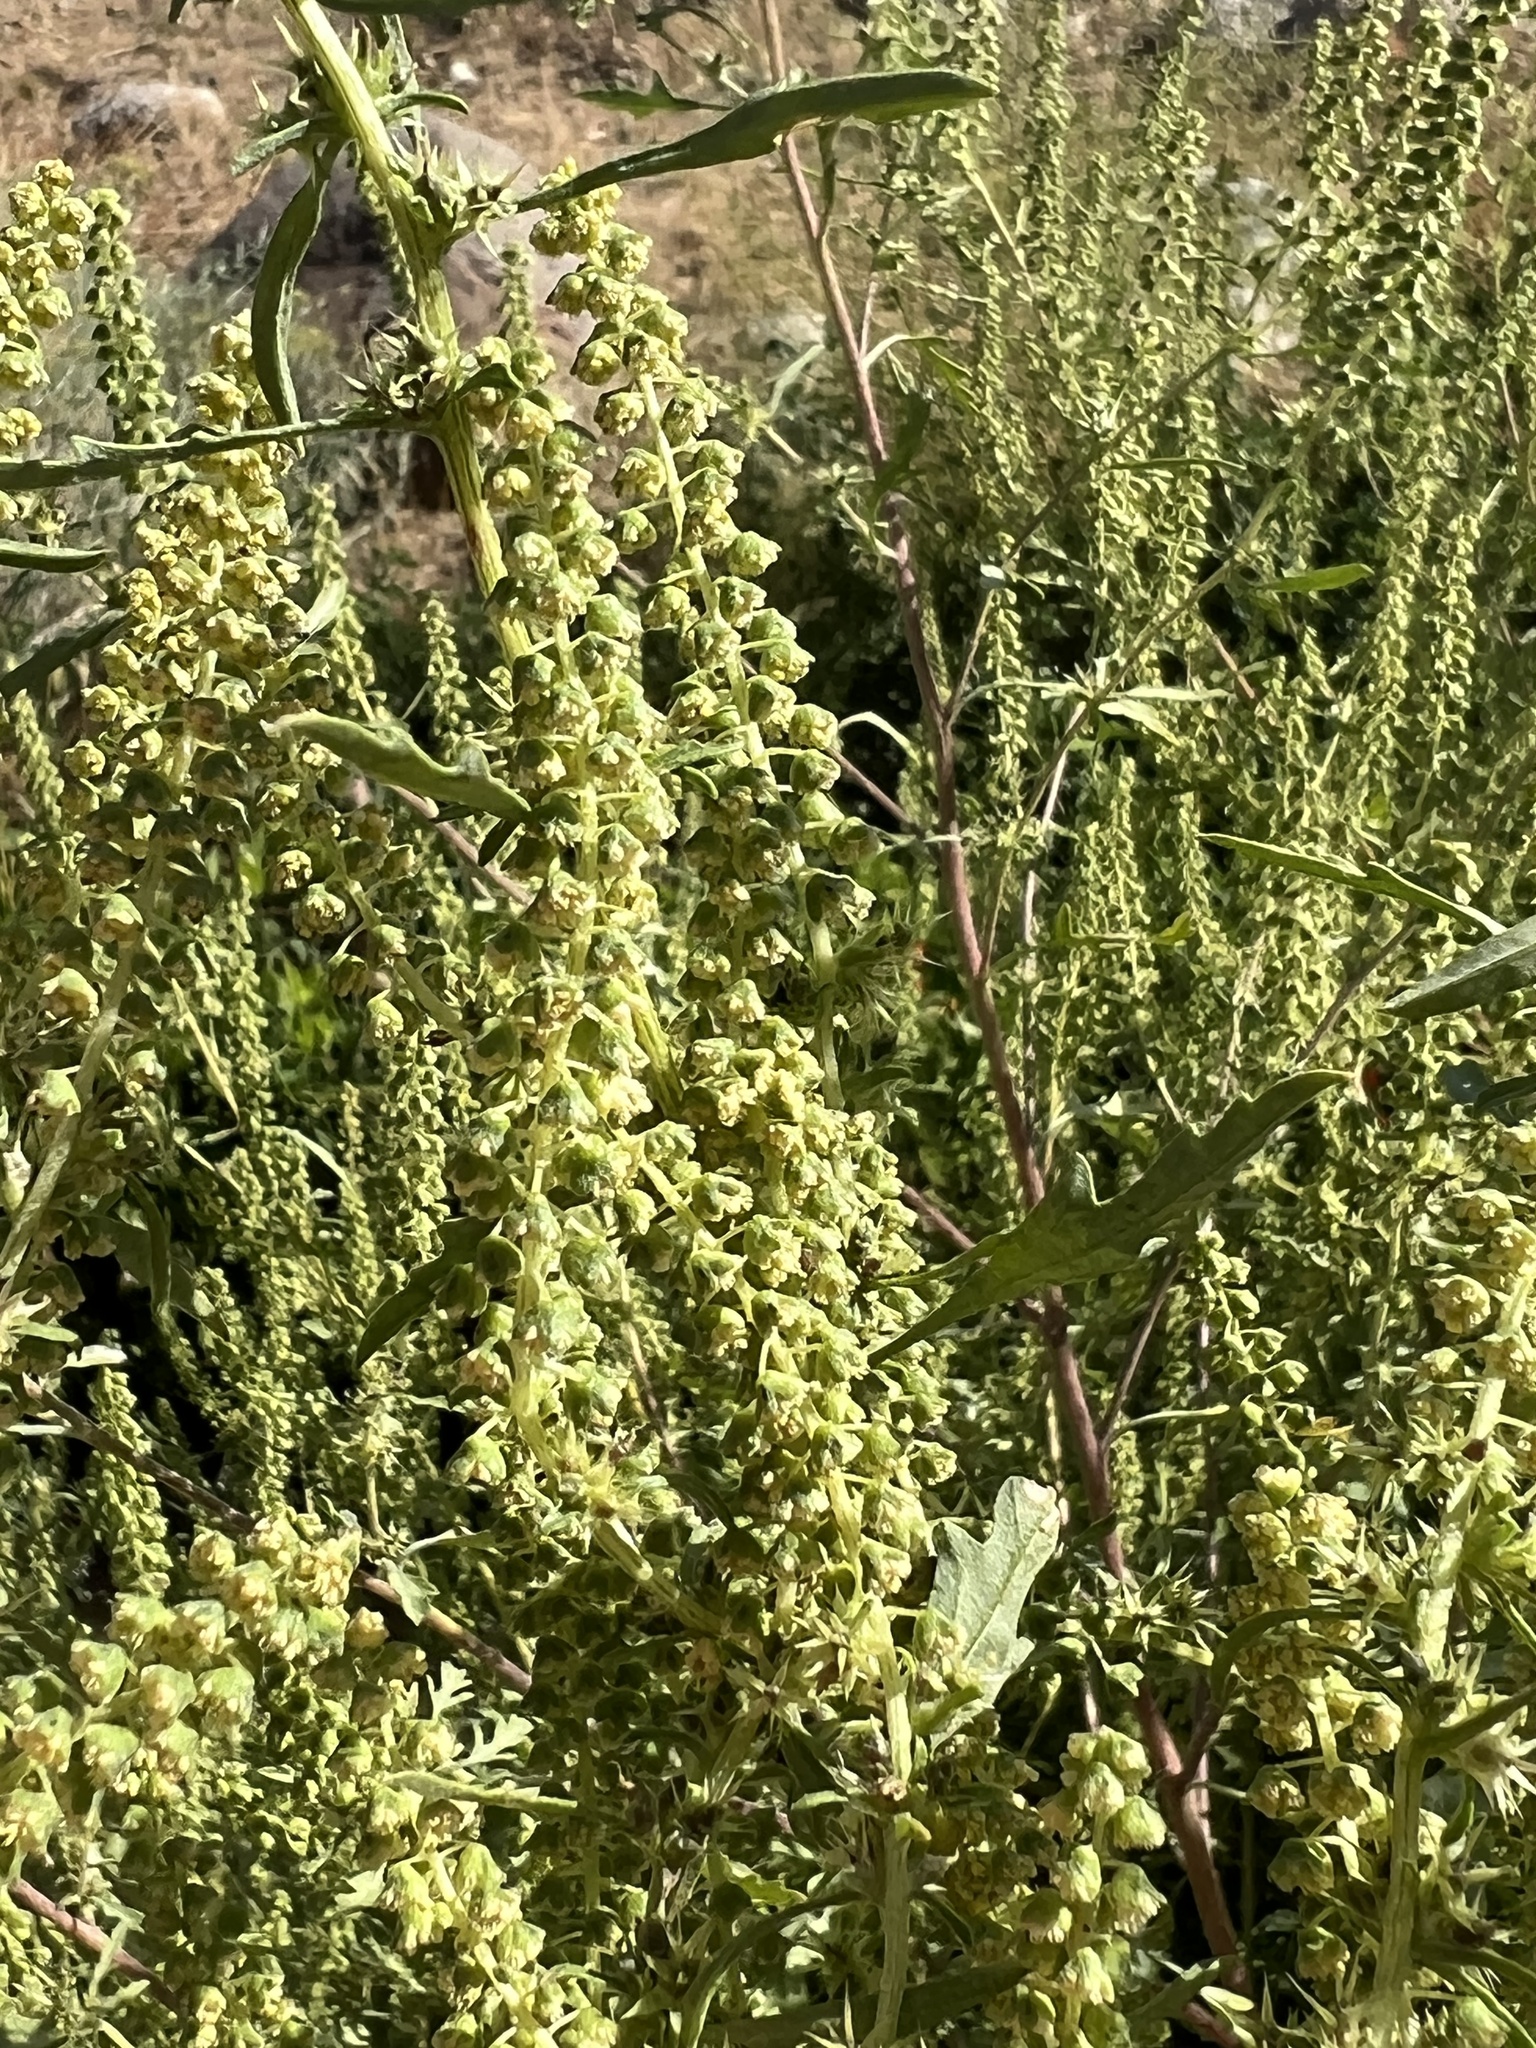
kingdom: Plantae
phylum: Tracheophyta
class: Magnoliopsida
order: Asterales
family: Asteraceae
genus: Ambrosia
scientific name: Ambrosia acanthicarpa
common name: Hooker's bur ragweed
